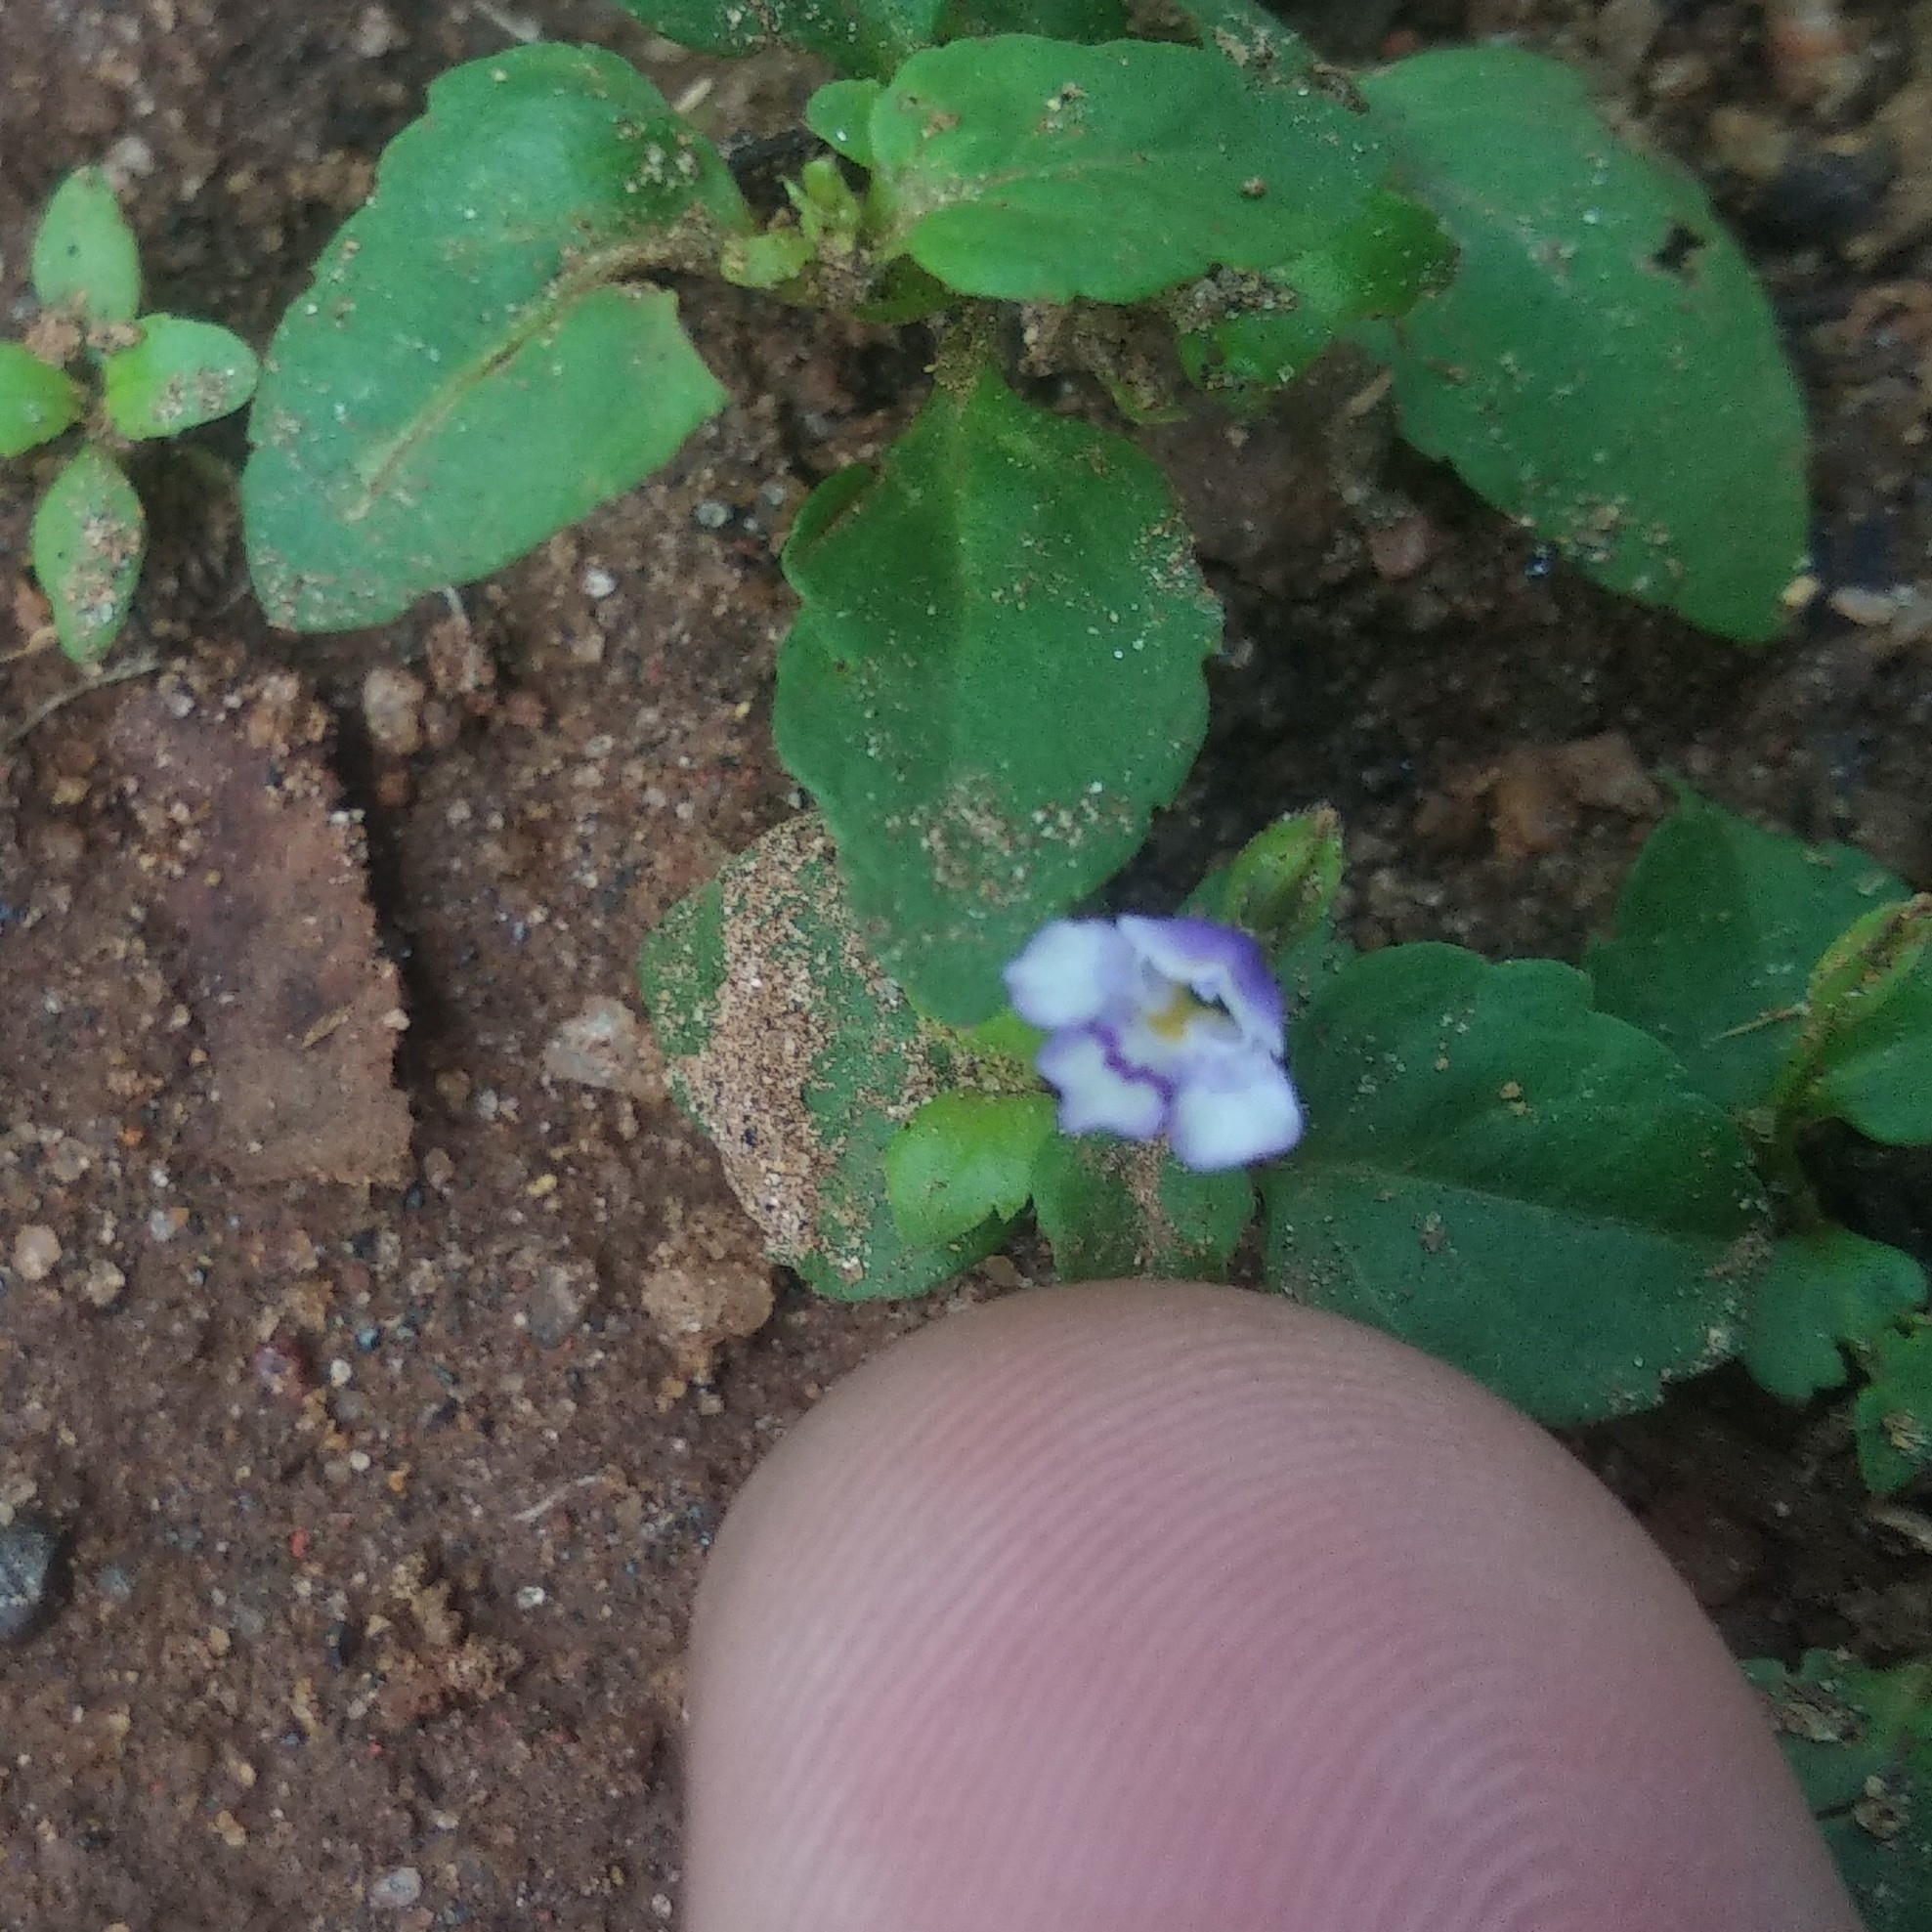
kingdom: Plantae
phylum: Tracheophyta
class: Magnoliopsida
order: Lamiales
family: Linderniaceae
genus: Torenia
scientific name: Torenia crustacea
